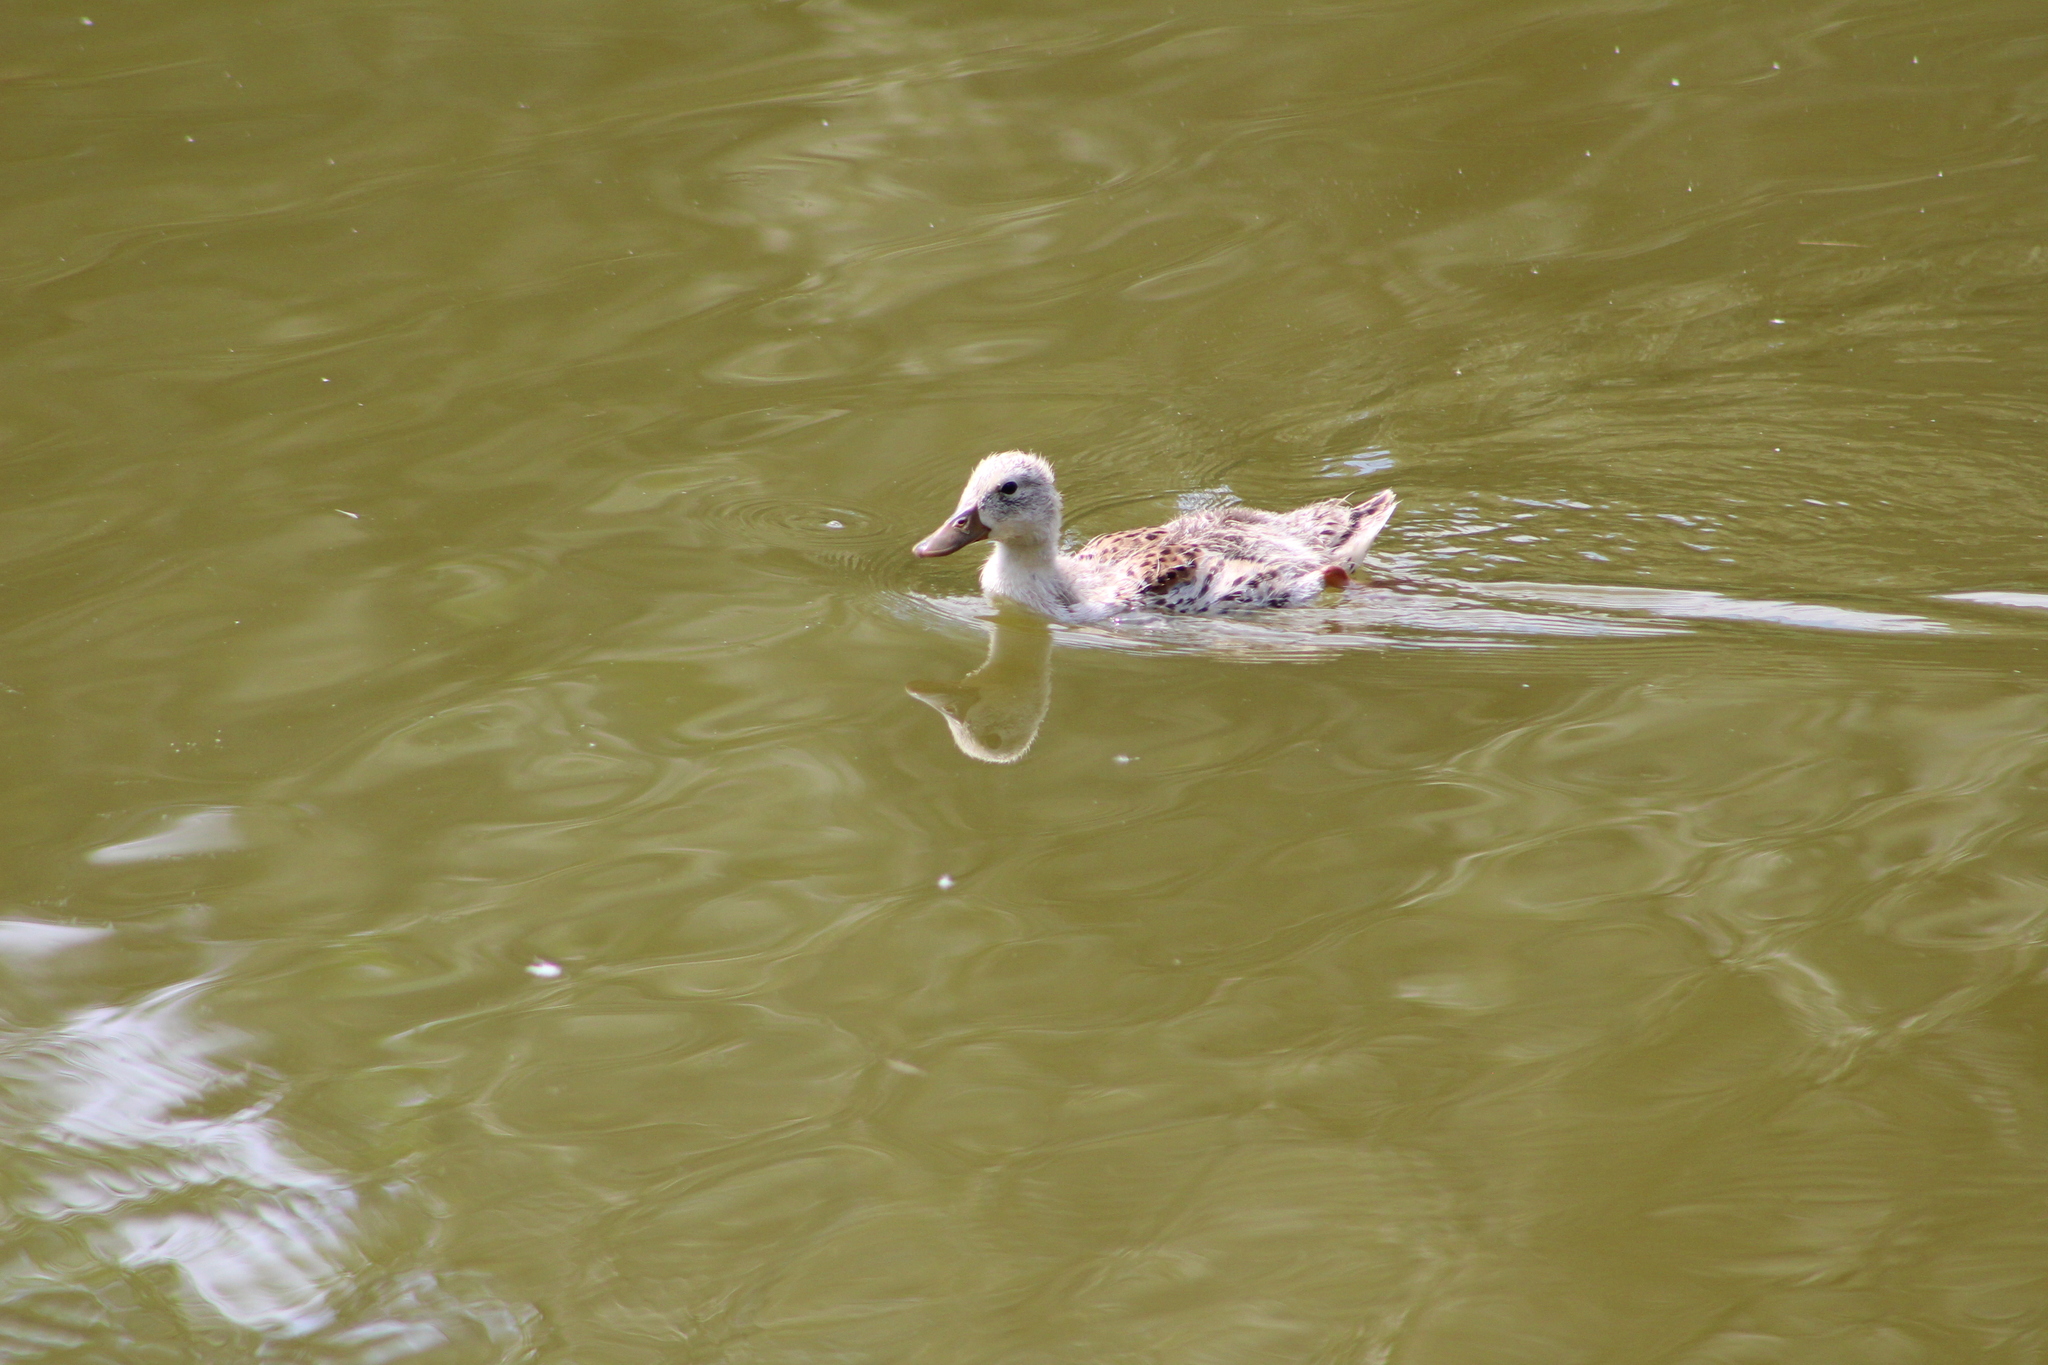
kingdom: Animalia
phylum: Chordata
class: Aves
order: Anseriformes
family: Anatidae
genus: Anas
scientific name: Anas platyrhynchos
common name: Mallard
